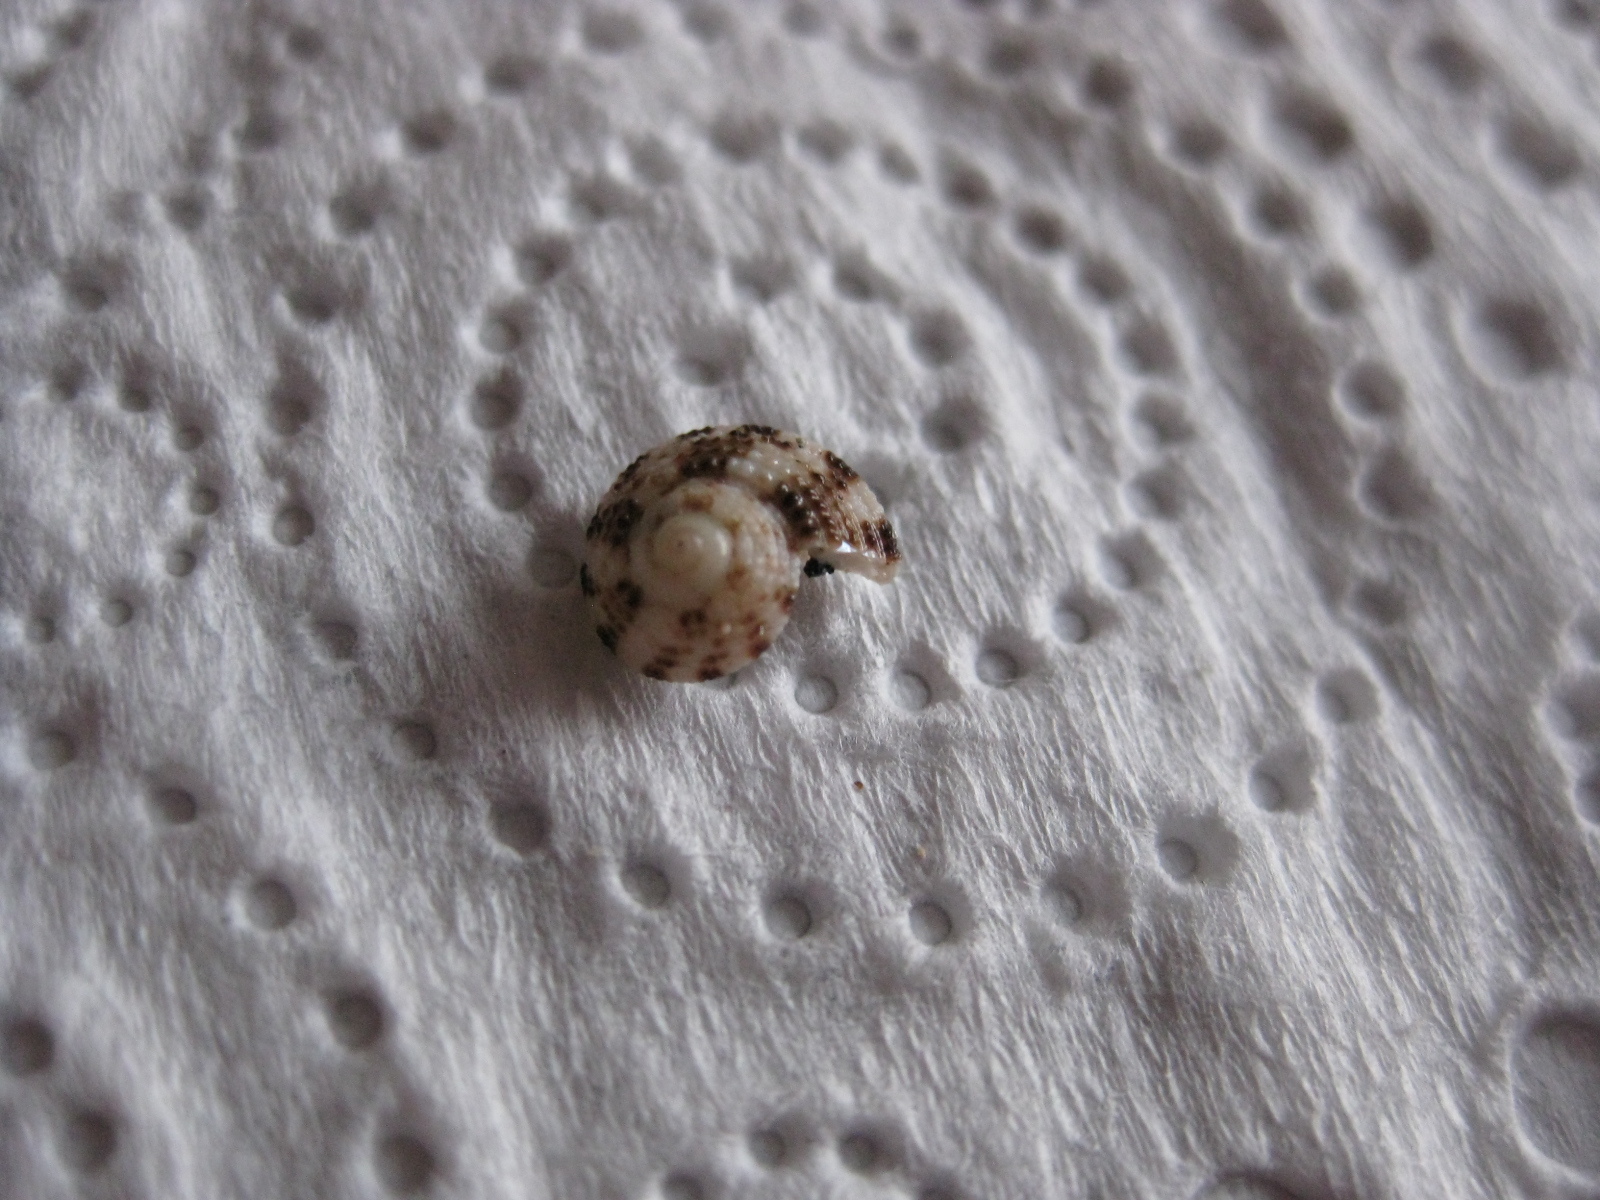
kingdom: Animalia
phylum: Mollusca
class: Gastropoda
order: Trochida
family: Trochidae
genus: Coelotrochus
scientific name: Coelotrochus tiaratus
